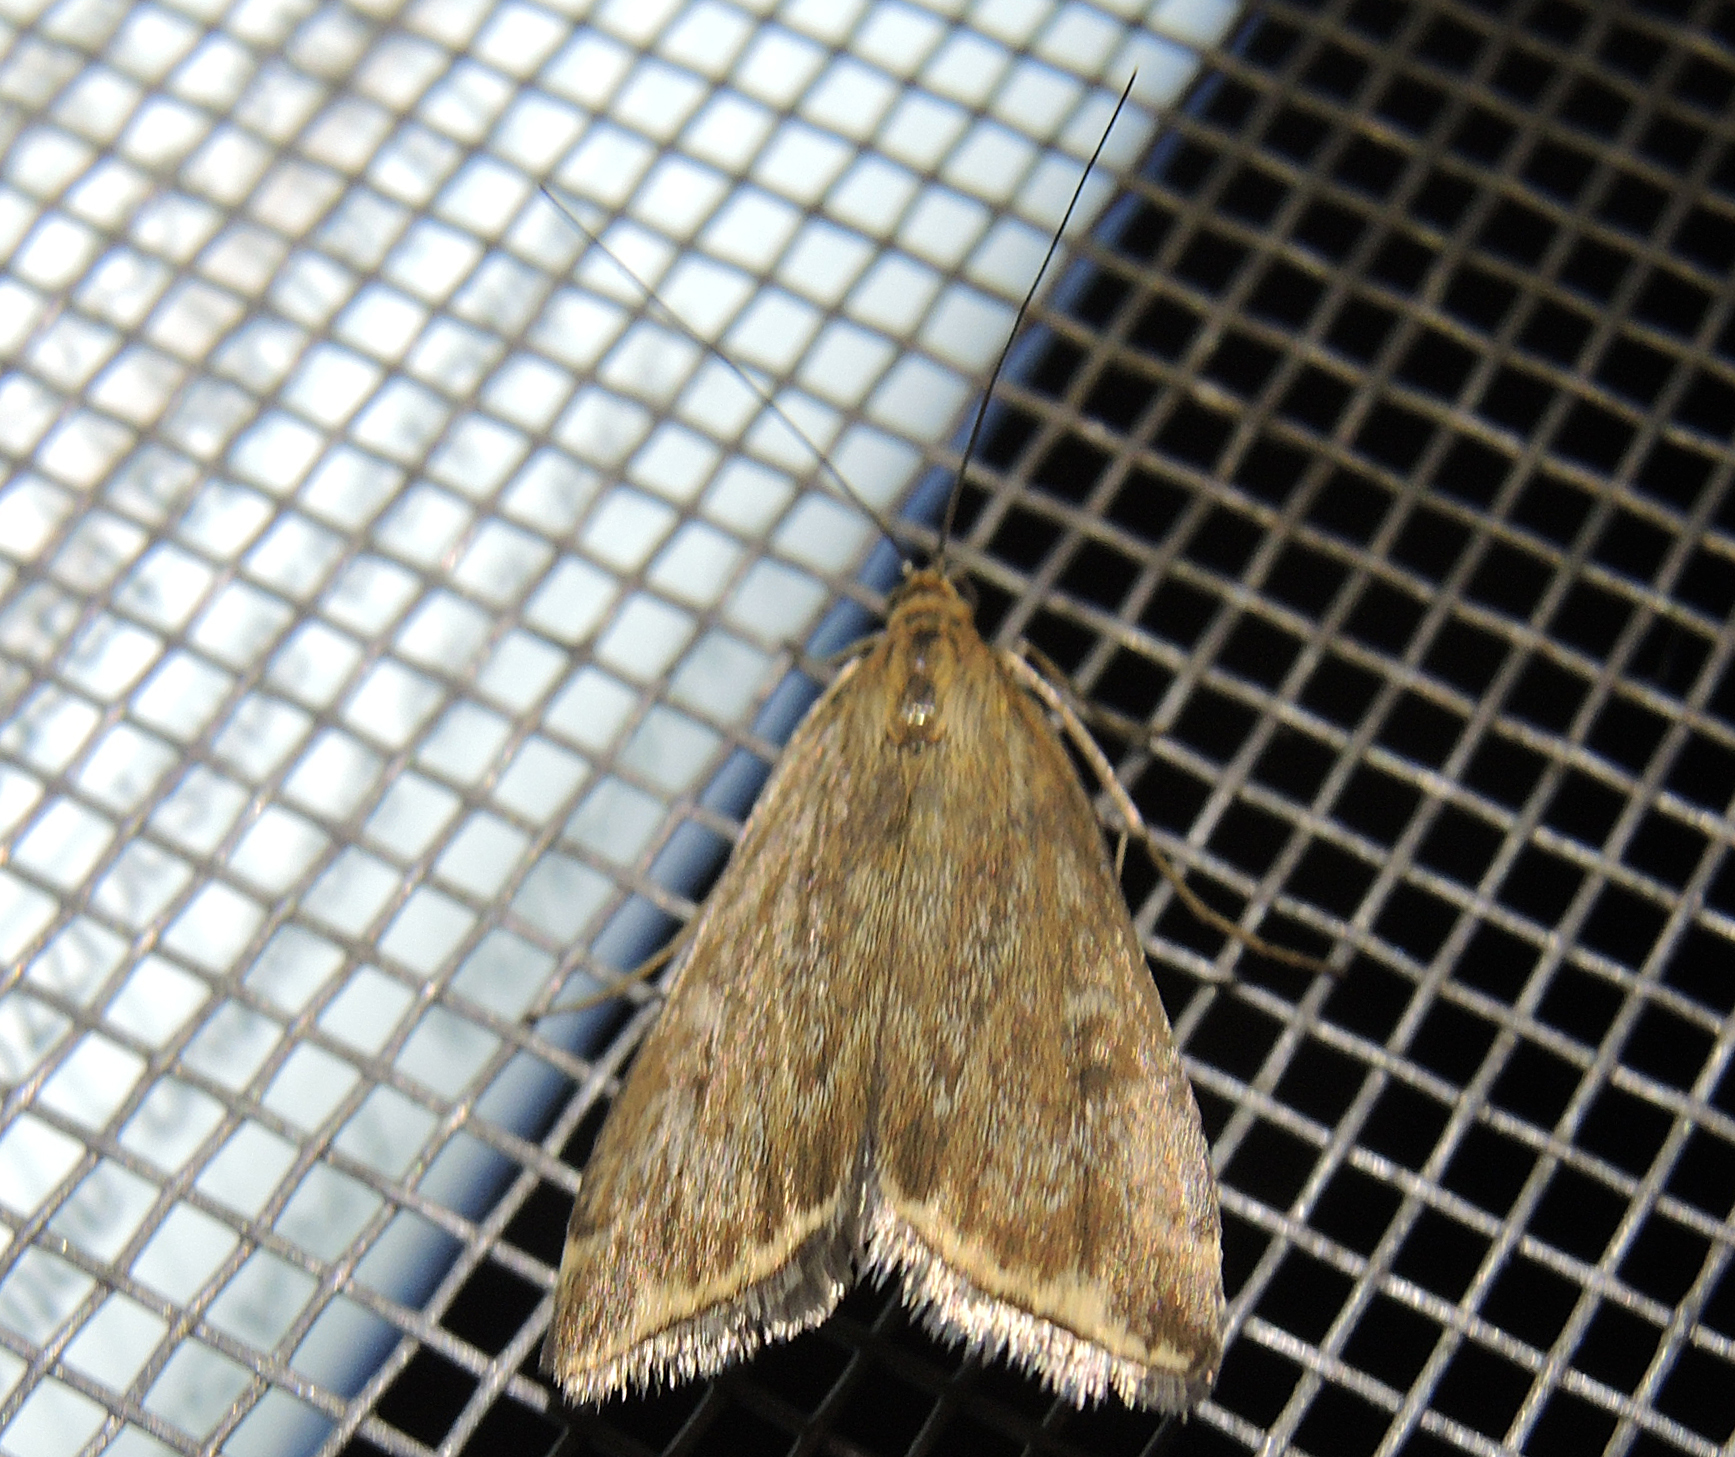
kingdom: Animalia
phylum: Arthropoda
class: Insecta
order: Lepidoptera
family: Crambidae
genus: Loxostege
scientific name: Loxostege sticticalis
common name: Crambid moth
